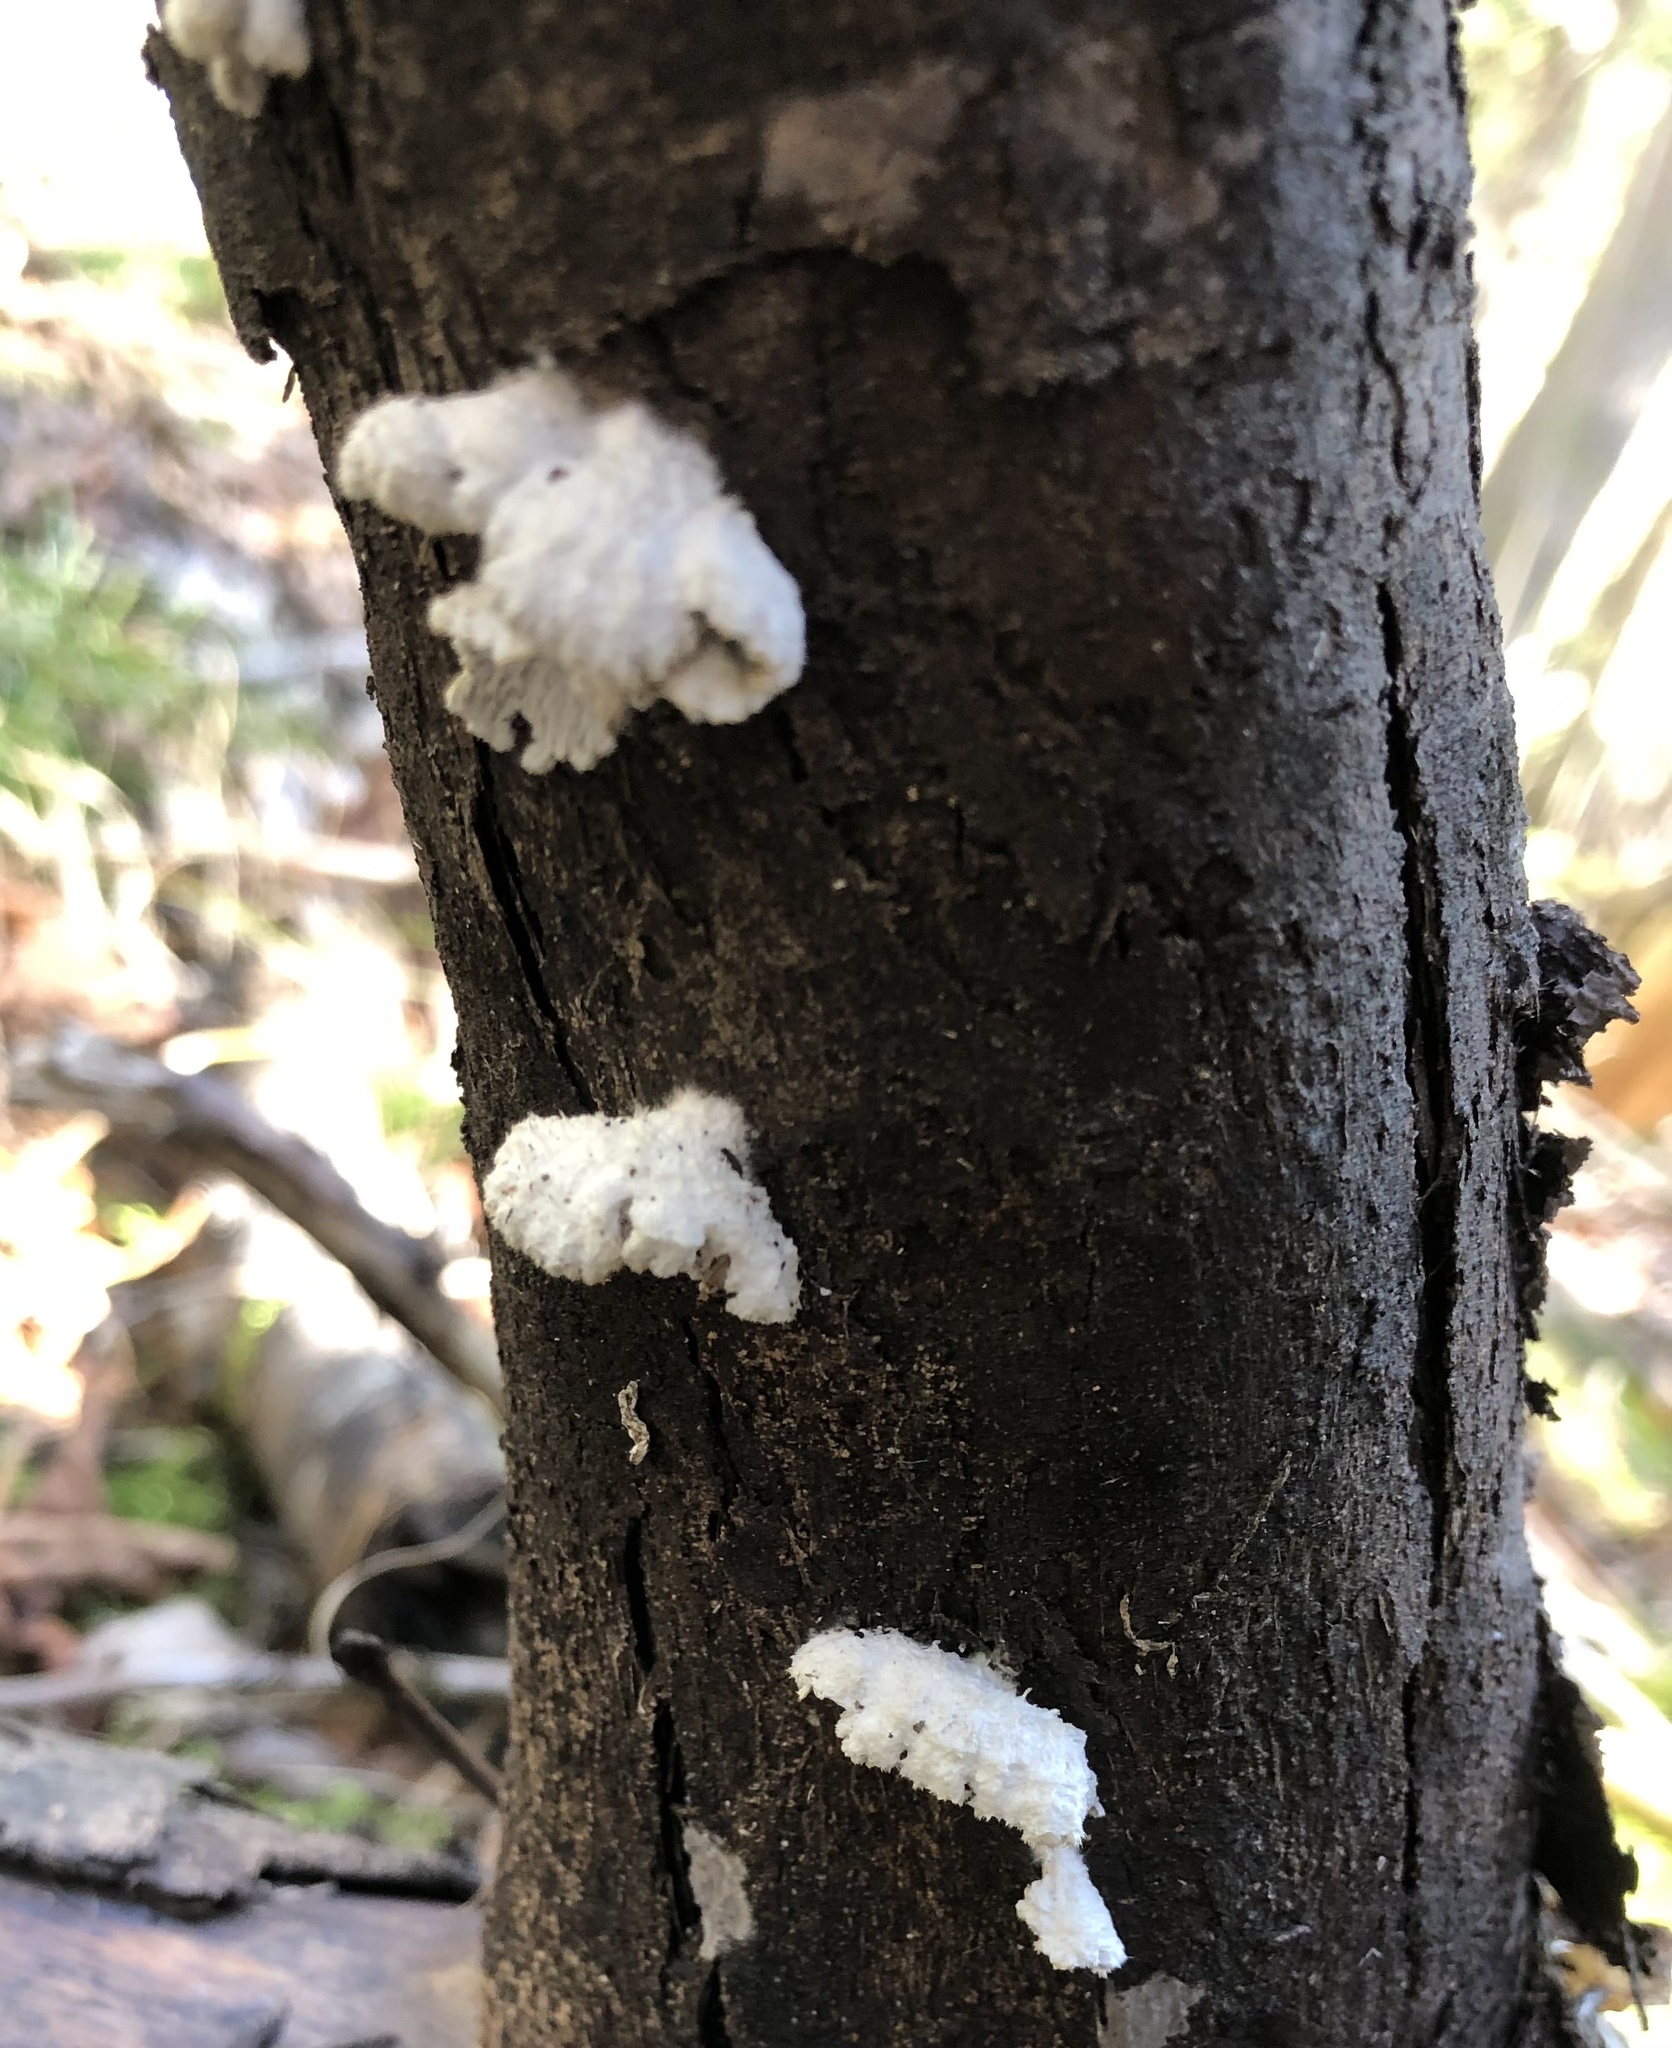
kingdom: Fungi
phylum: Basidiomycota
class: Agaricomycetes
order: Agaricales
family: Schizophyllaceae
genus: Schizophyllum
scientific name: Schizophyllum commune
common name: Common porecrust
